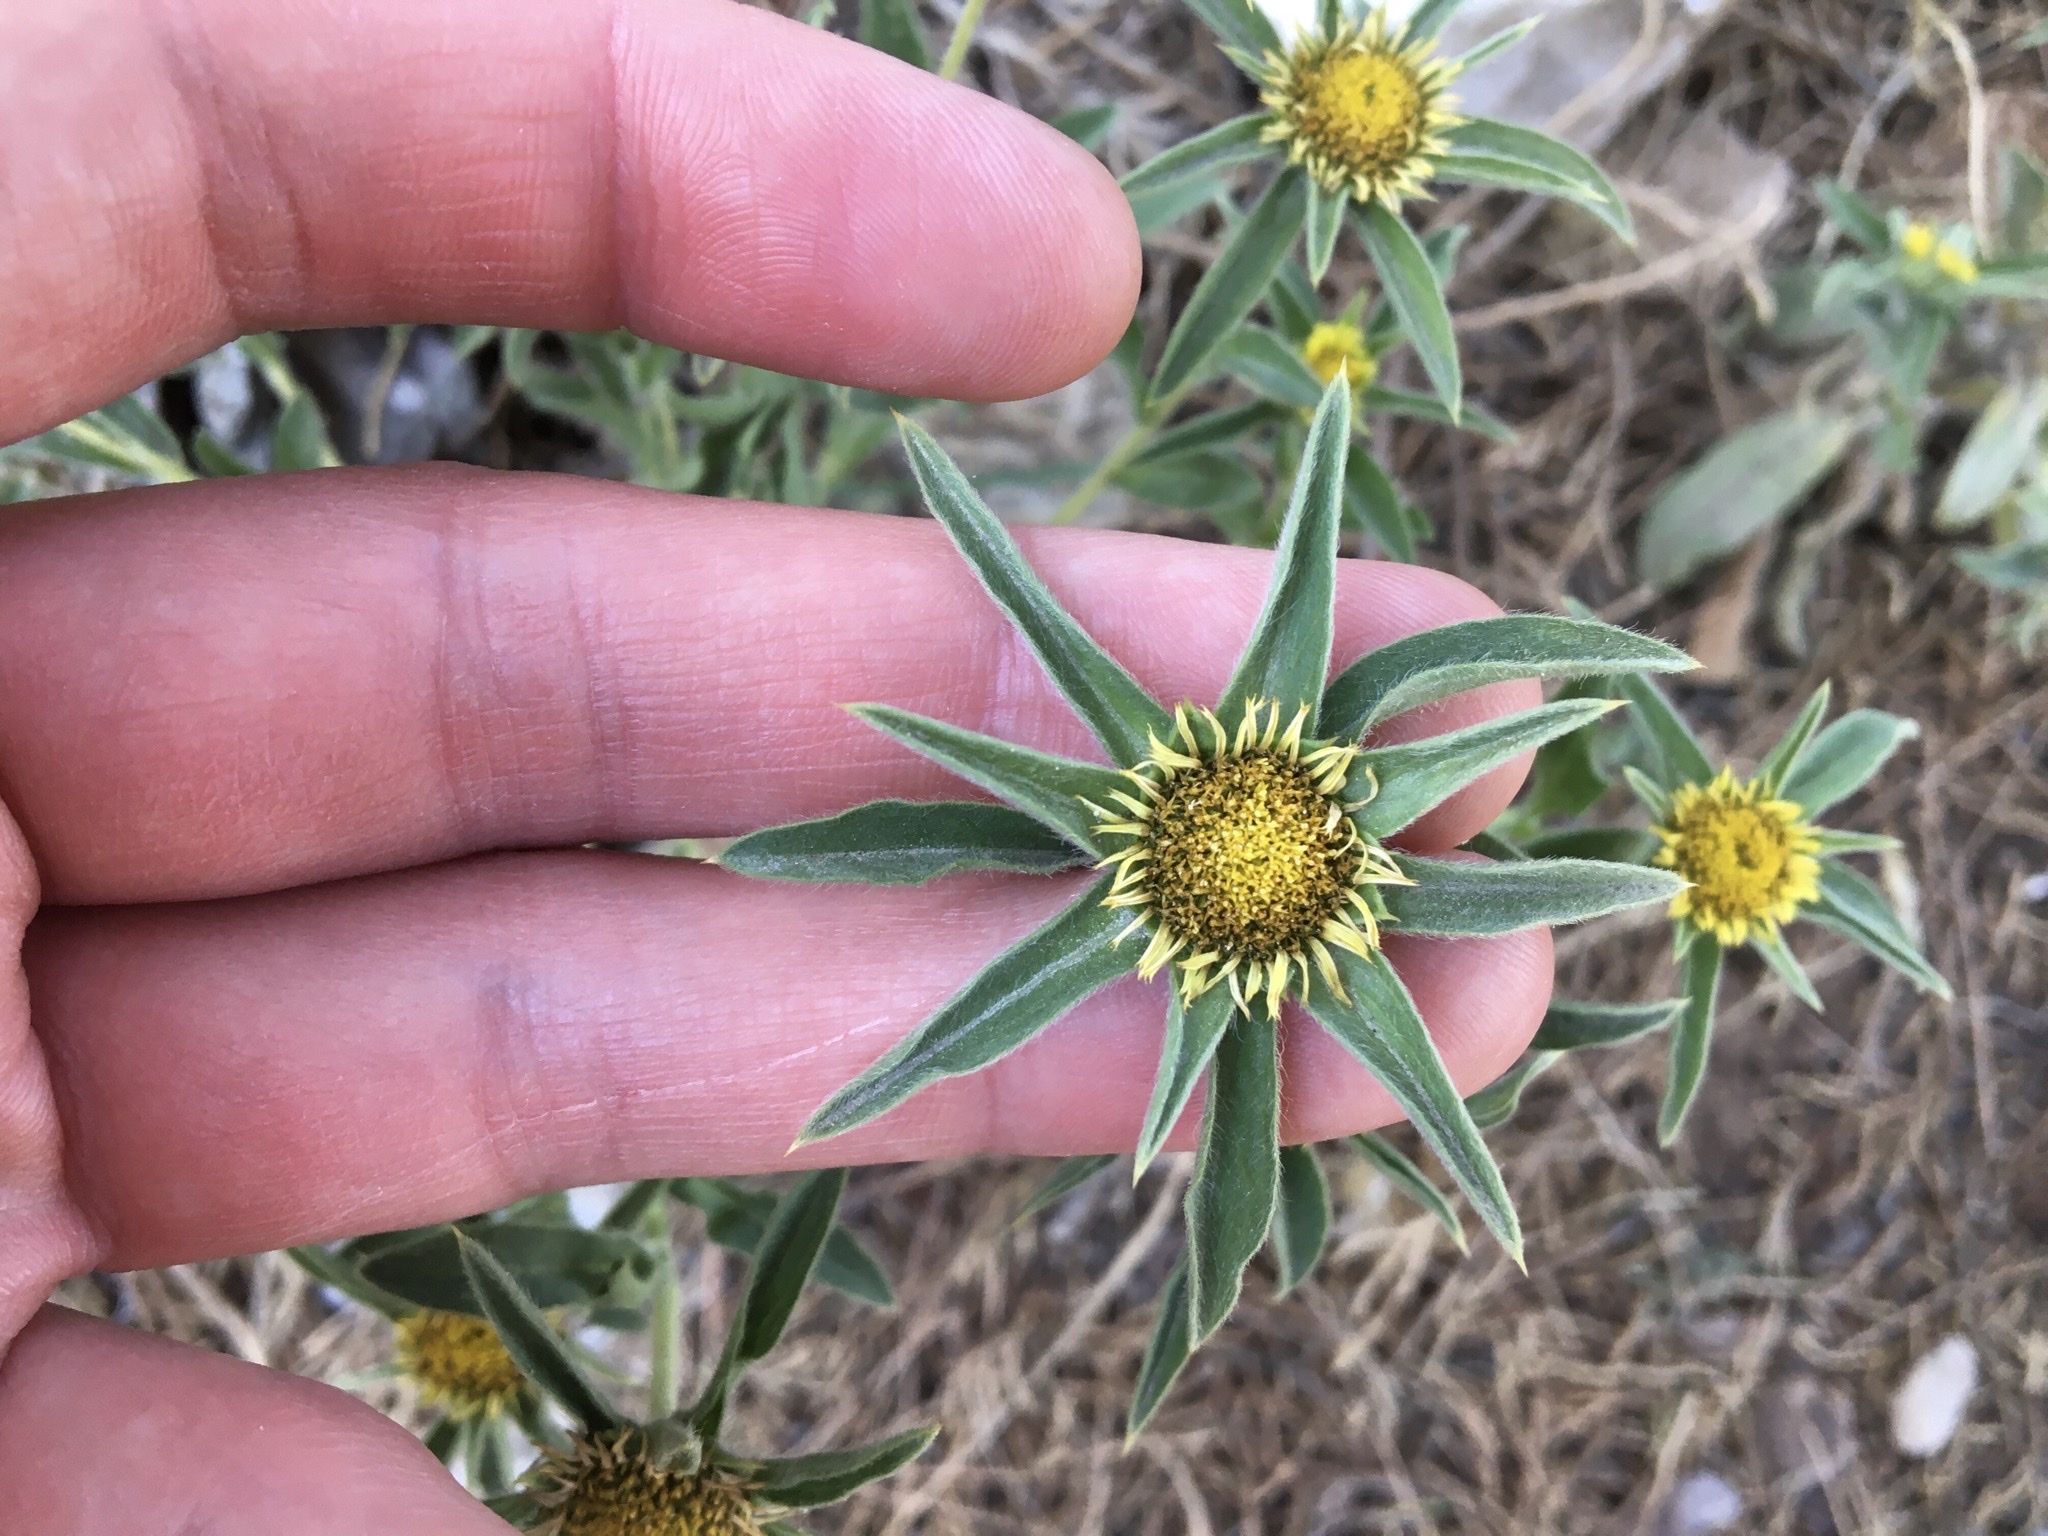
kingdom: Plantae
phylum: Tracheophyta
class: Magnoliopsida
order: Asterales
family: Asteraceae
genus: Pallenis
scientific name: Pallenis spinosa
